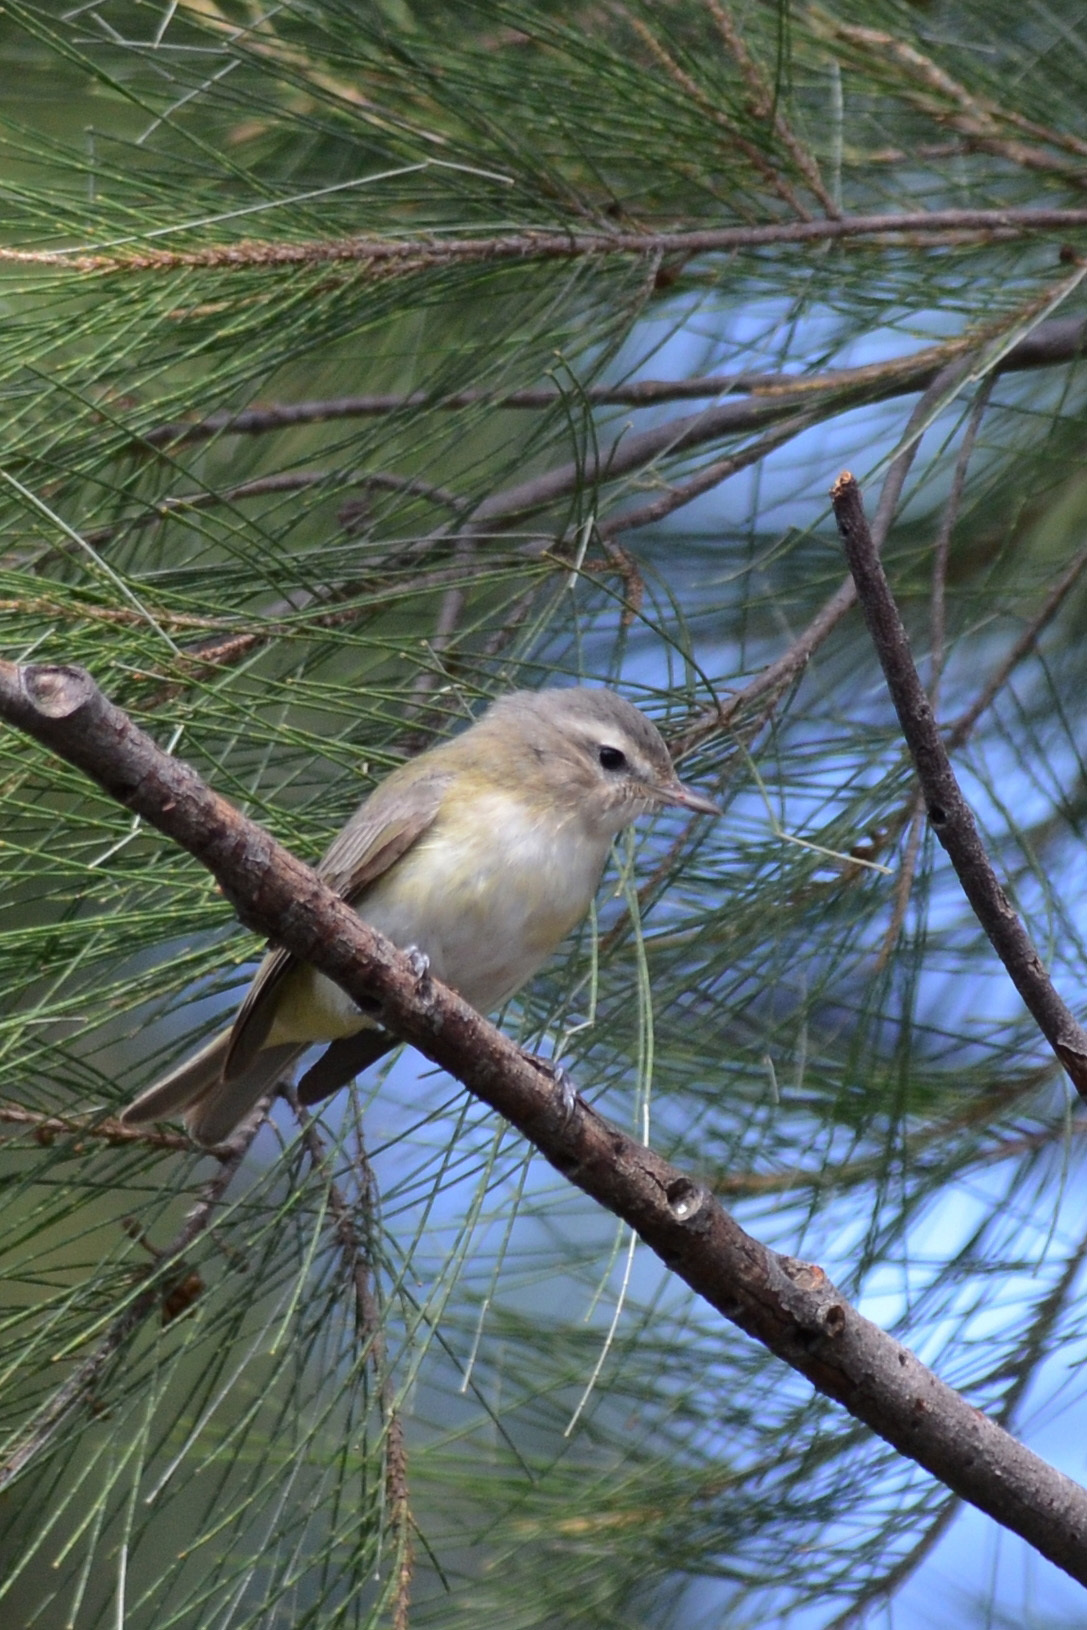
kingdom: Animalia
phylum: Chordata
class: Aves
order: Passeriformes
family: Vireonidae
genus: Vireo
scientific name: Vireo gilvus
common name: Warbling vireo
